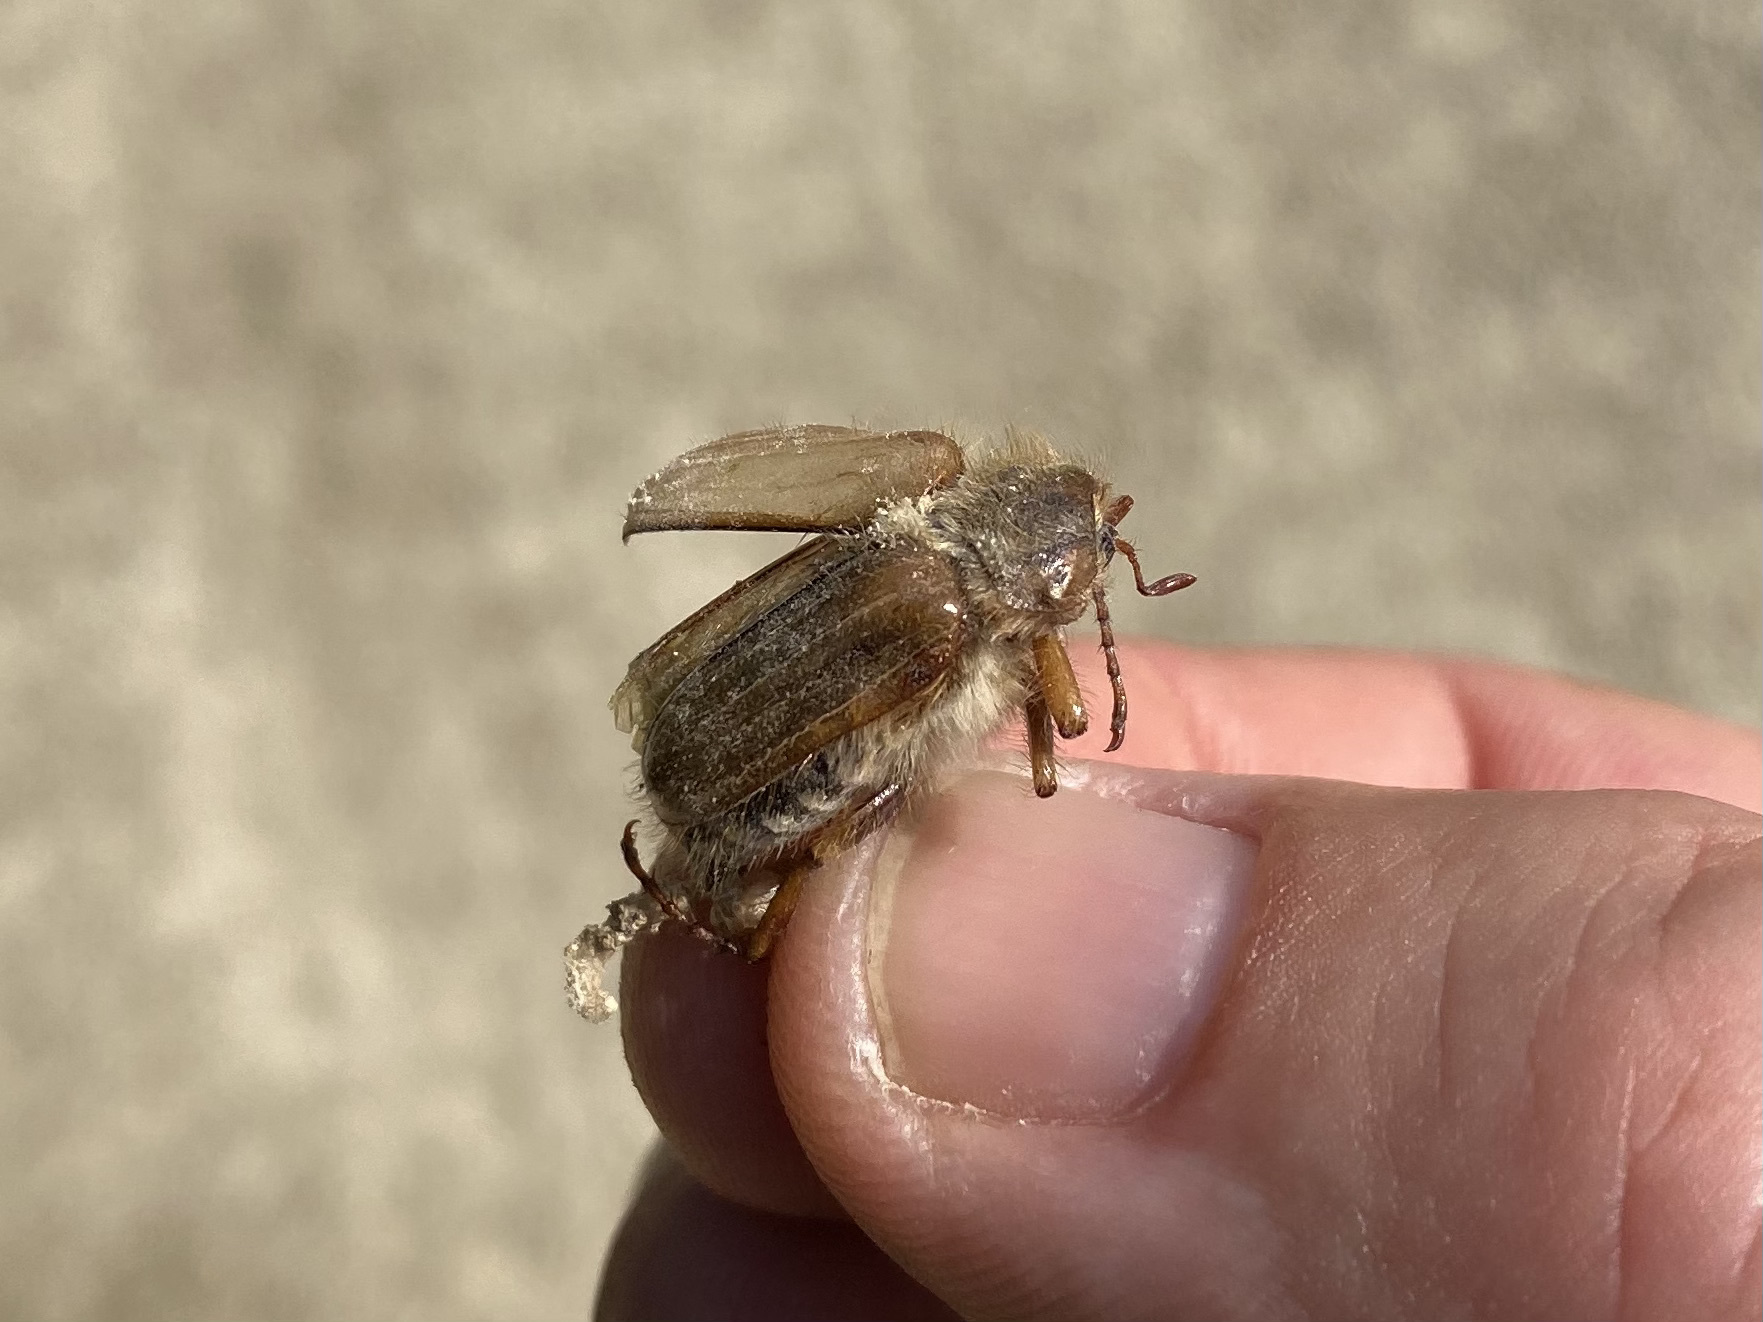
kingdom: Animalia
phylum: Arthropoda
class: Insecta
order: Coleoptera
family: Scarabaeidae
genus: Amphimallon
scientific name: Amphimallon solstitiale
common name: Summer chafer
